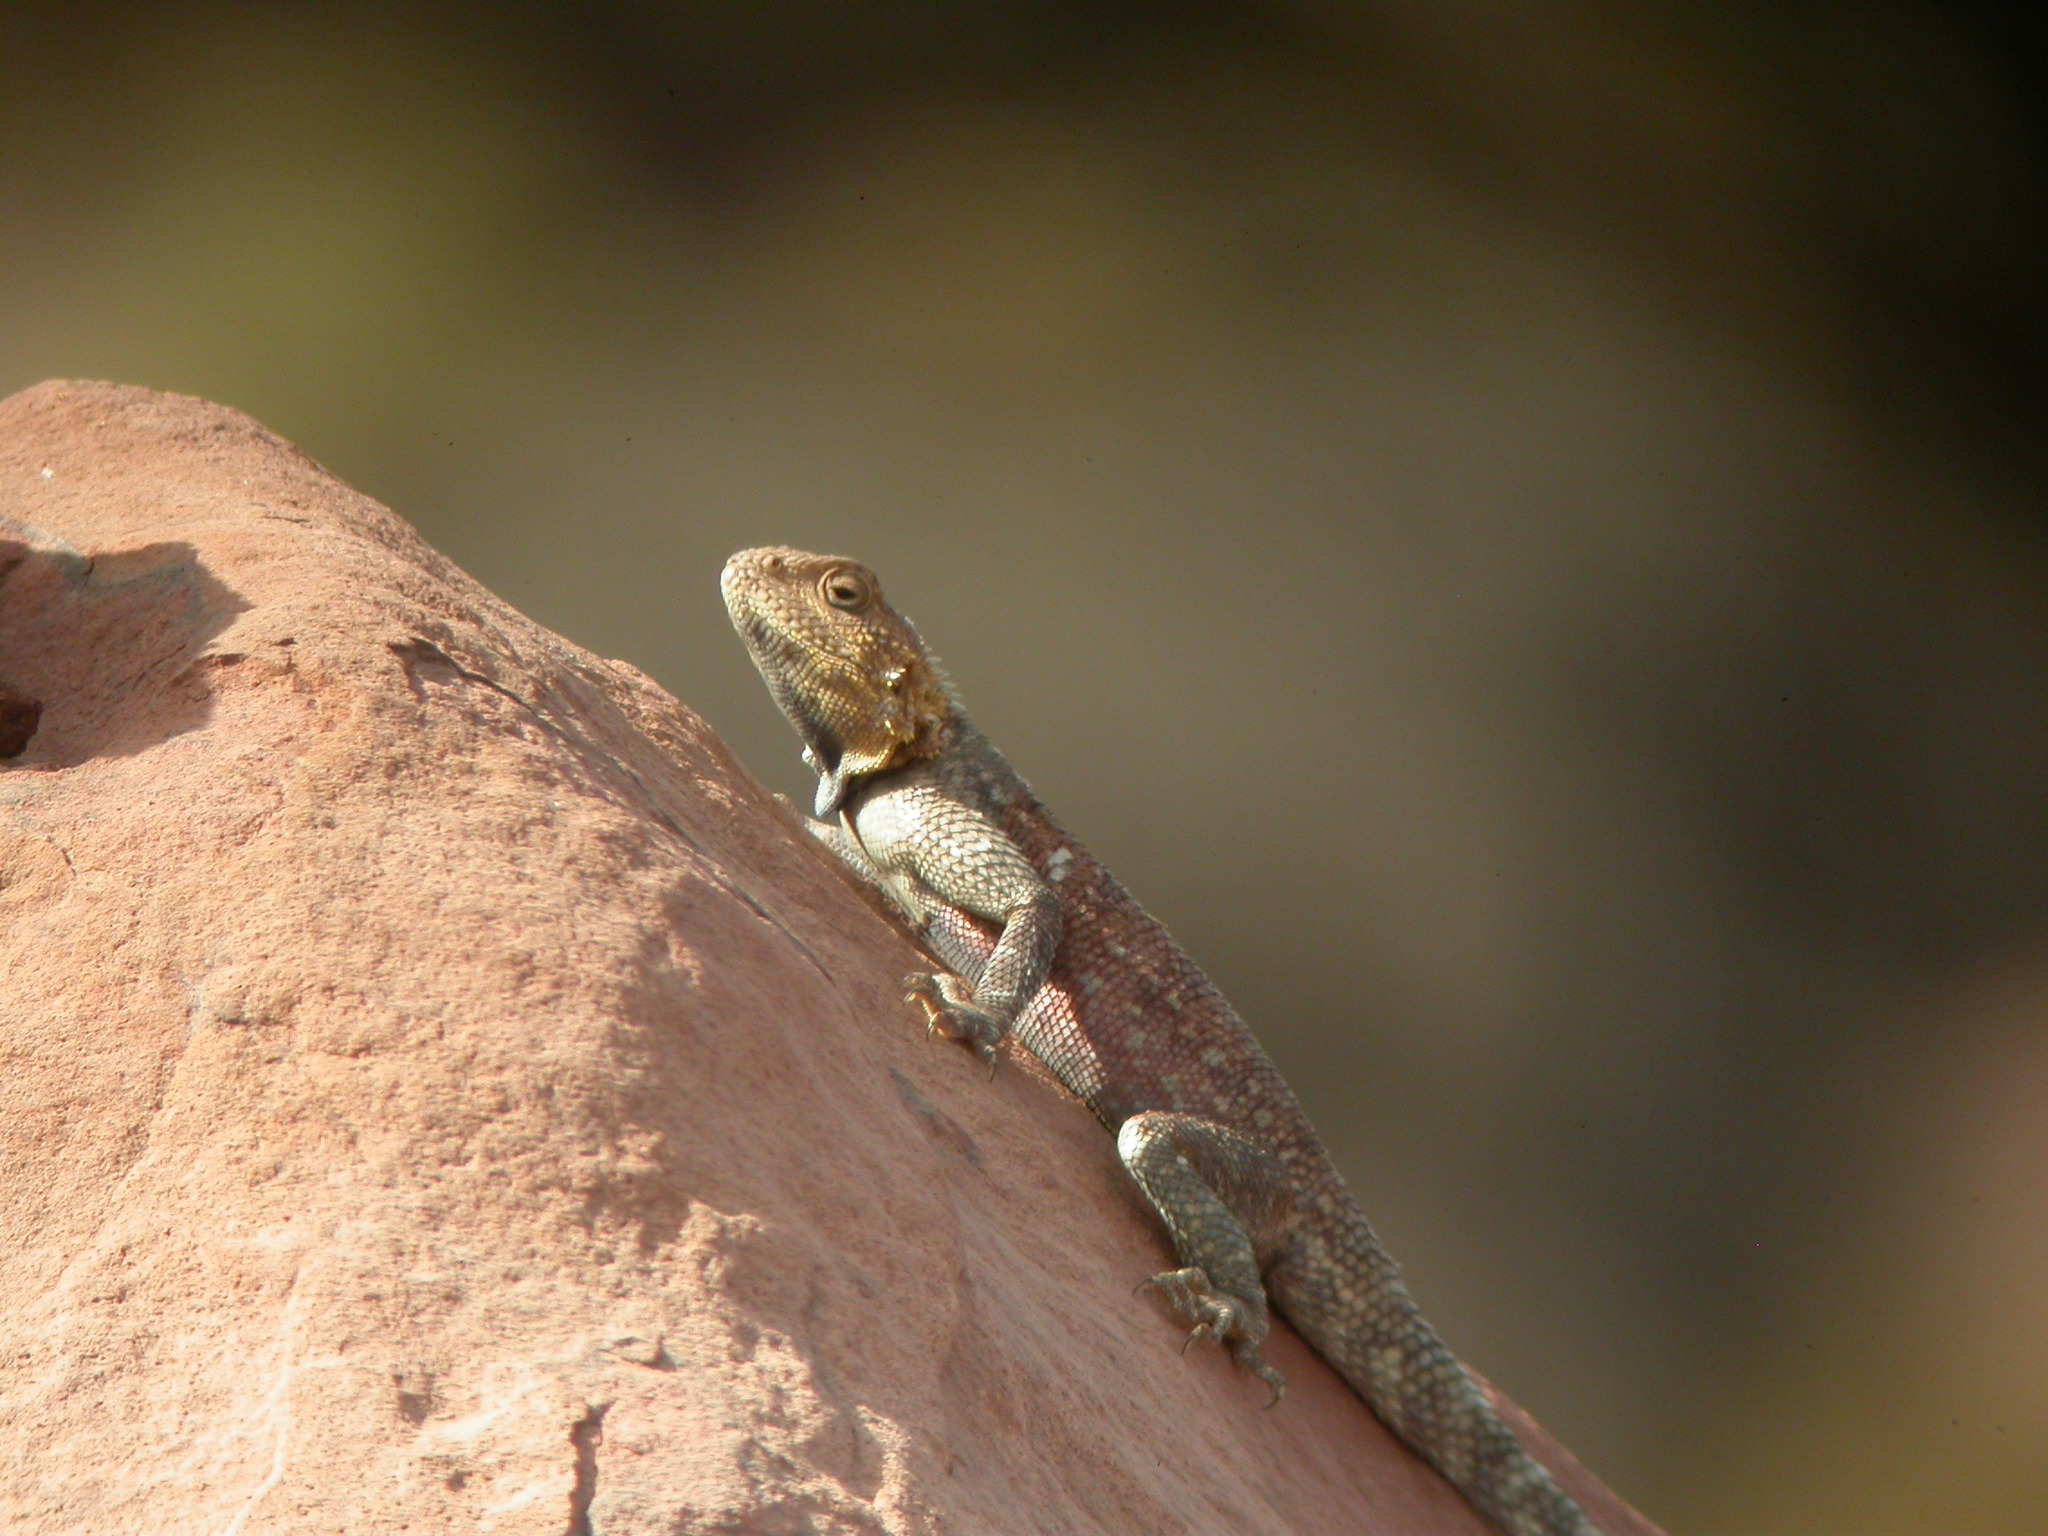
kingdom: Animalia
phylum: Chordata
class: Squamata
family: Agamidae
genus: Agama
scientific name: Agama impalearis
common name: Bibron's agama
